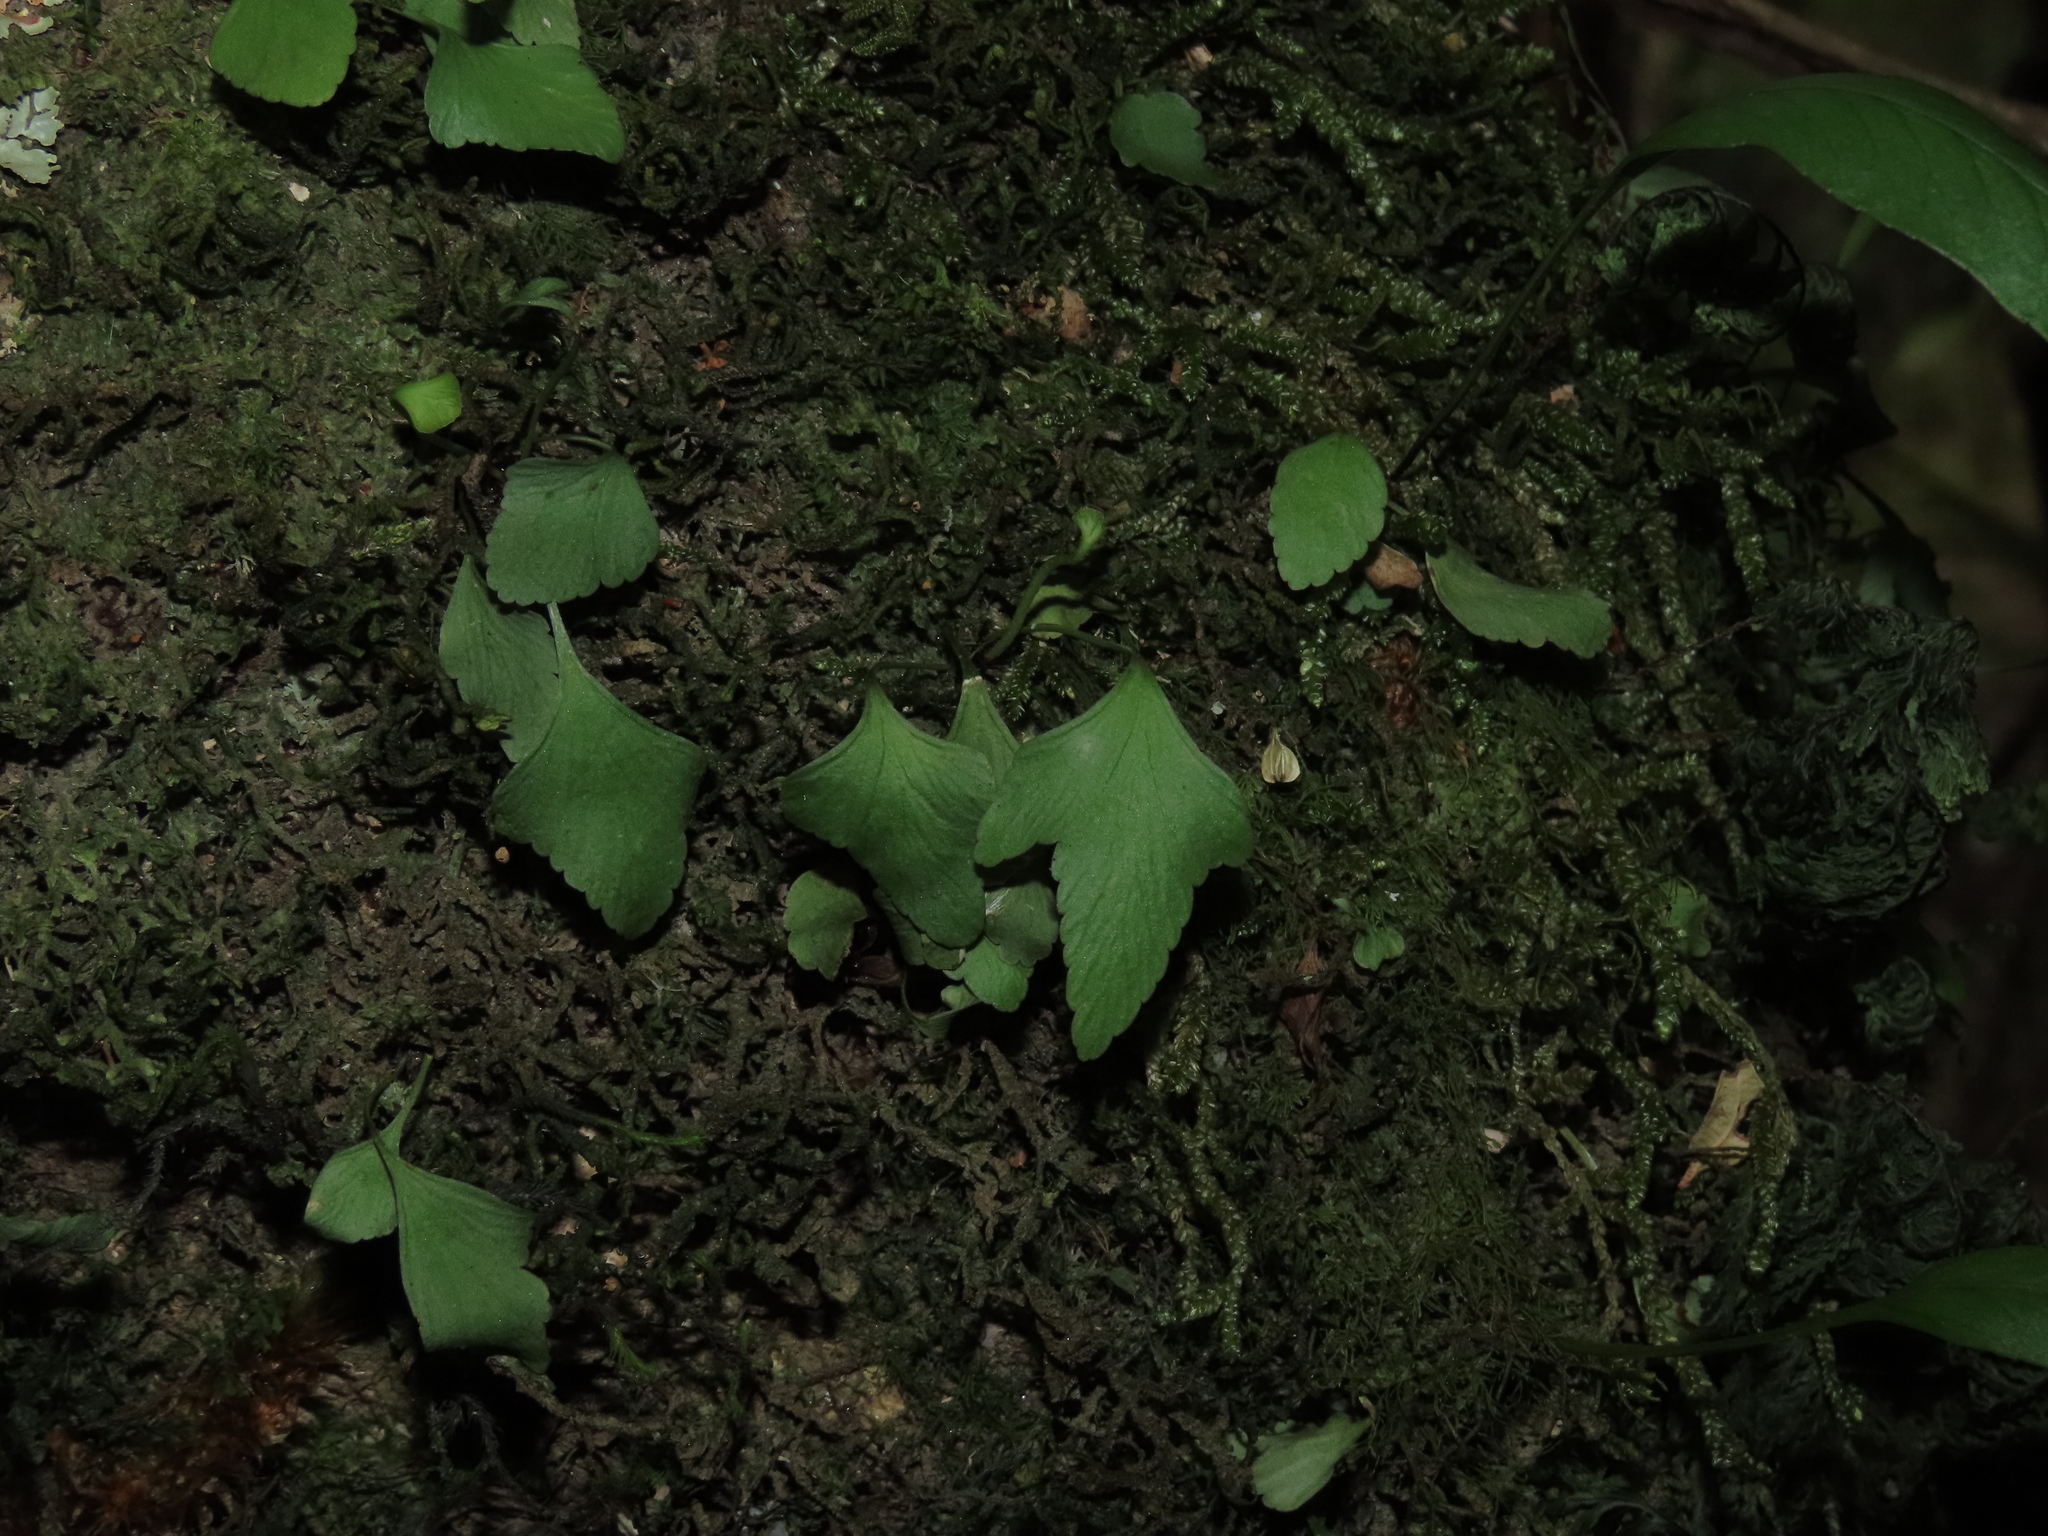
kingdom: Plantae
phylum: Tracheophyta
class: Polypodiopsida
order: Polypodiales
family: Aspleniaceae
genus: Asplenium
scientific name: Asplenium trilobum
